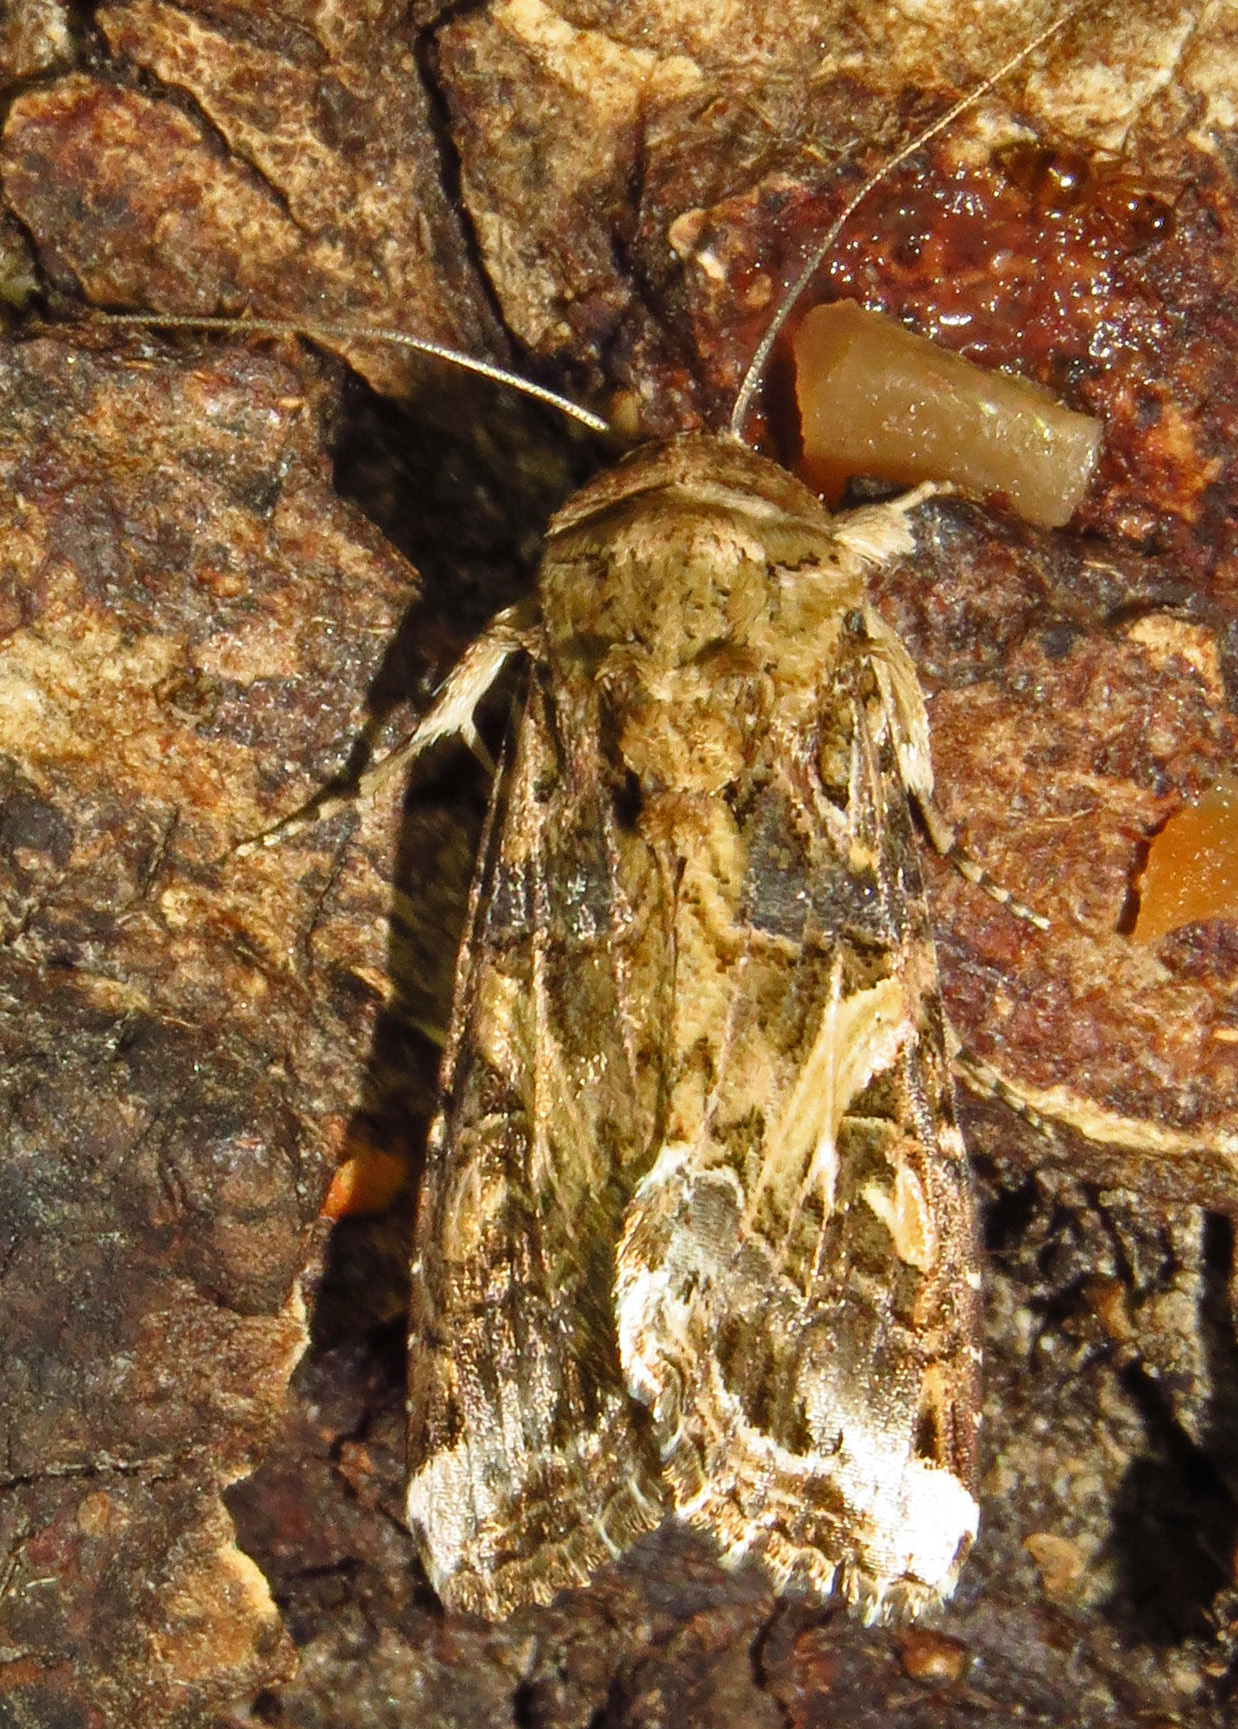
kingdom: Animalia
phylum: Arthropoda
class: Insecta
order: Lepidoptera
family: Noctuidae
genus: Spodoptera
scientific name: Spodoptera ornithogalli
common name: Yellow-striped armyworm
